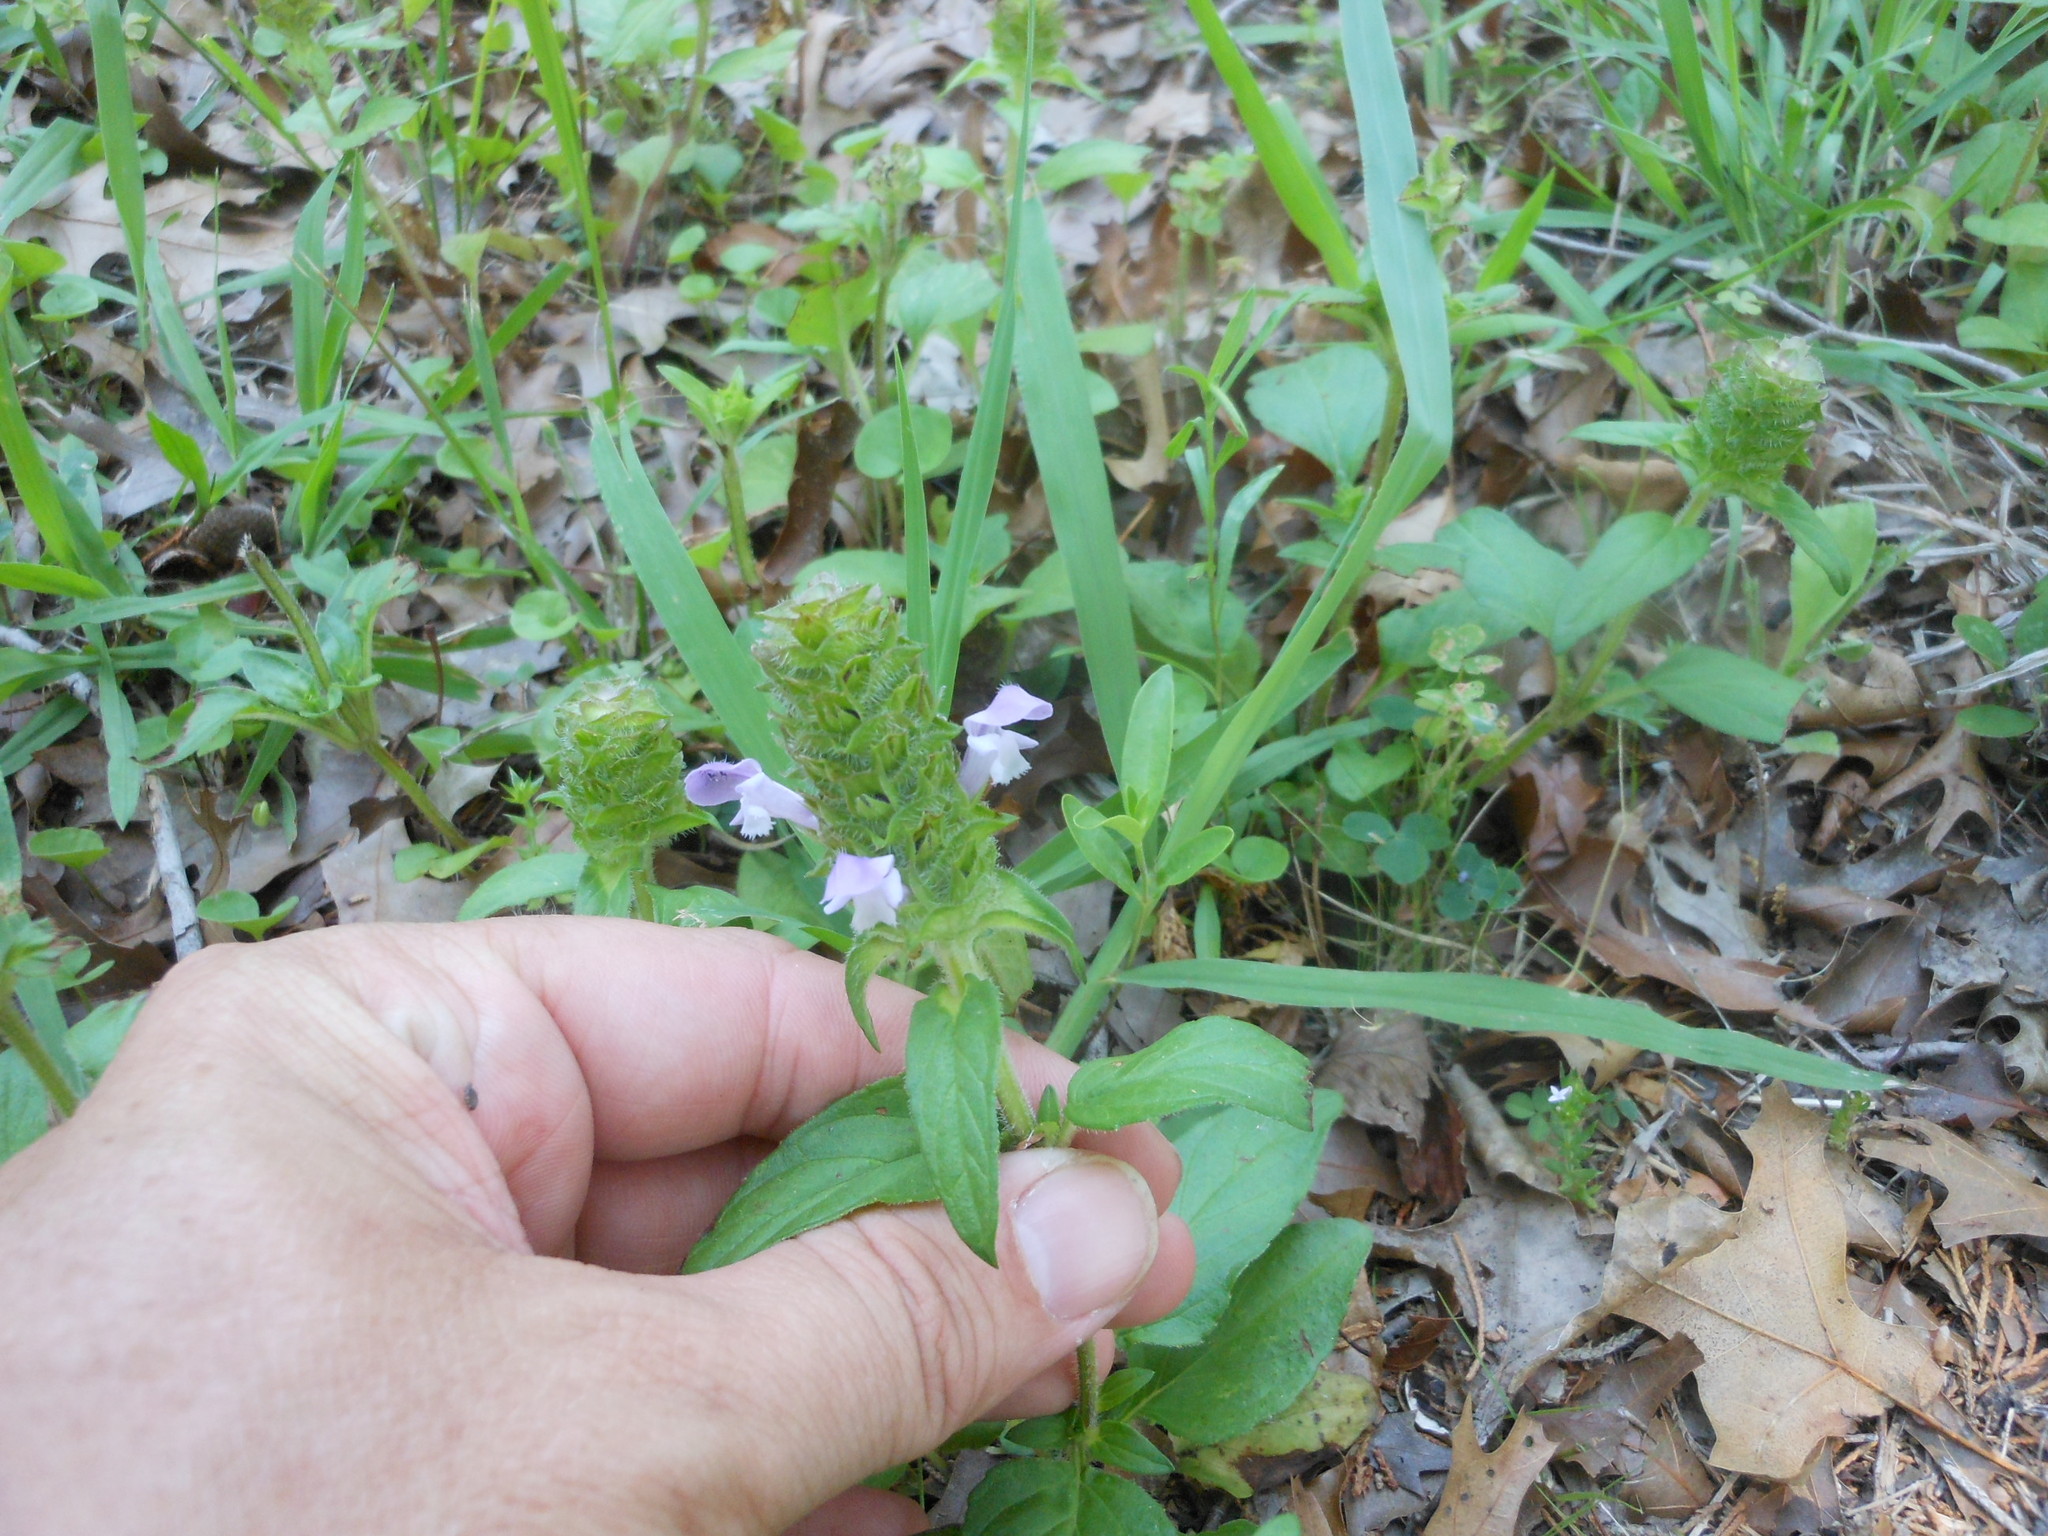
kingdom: Plantae
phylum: Tracheophyta
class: Magnoliopsida
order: Lamiales
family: Lamiaceae
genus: Prunella
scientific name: Prunella vulgaris
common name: Heal-all
